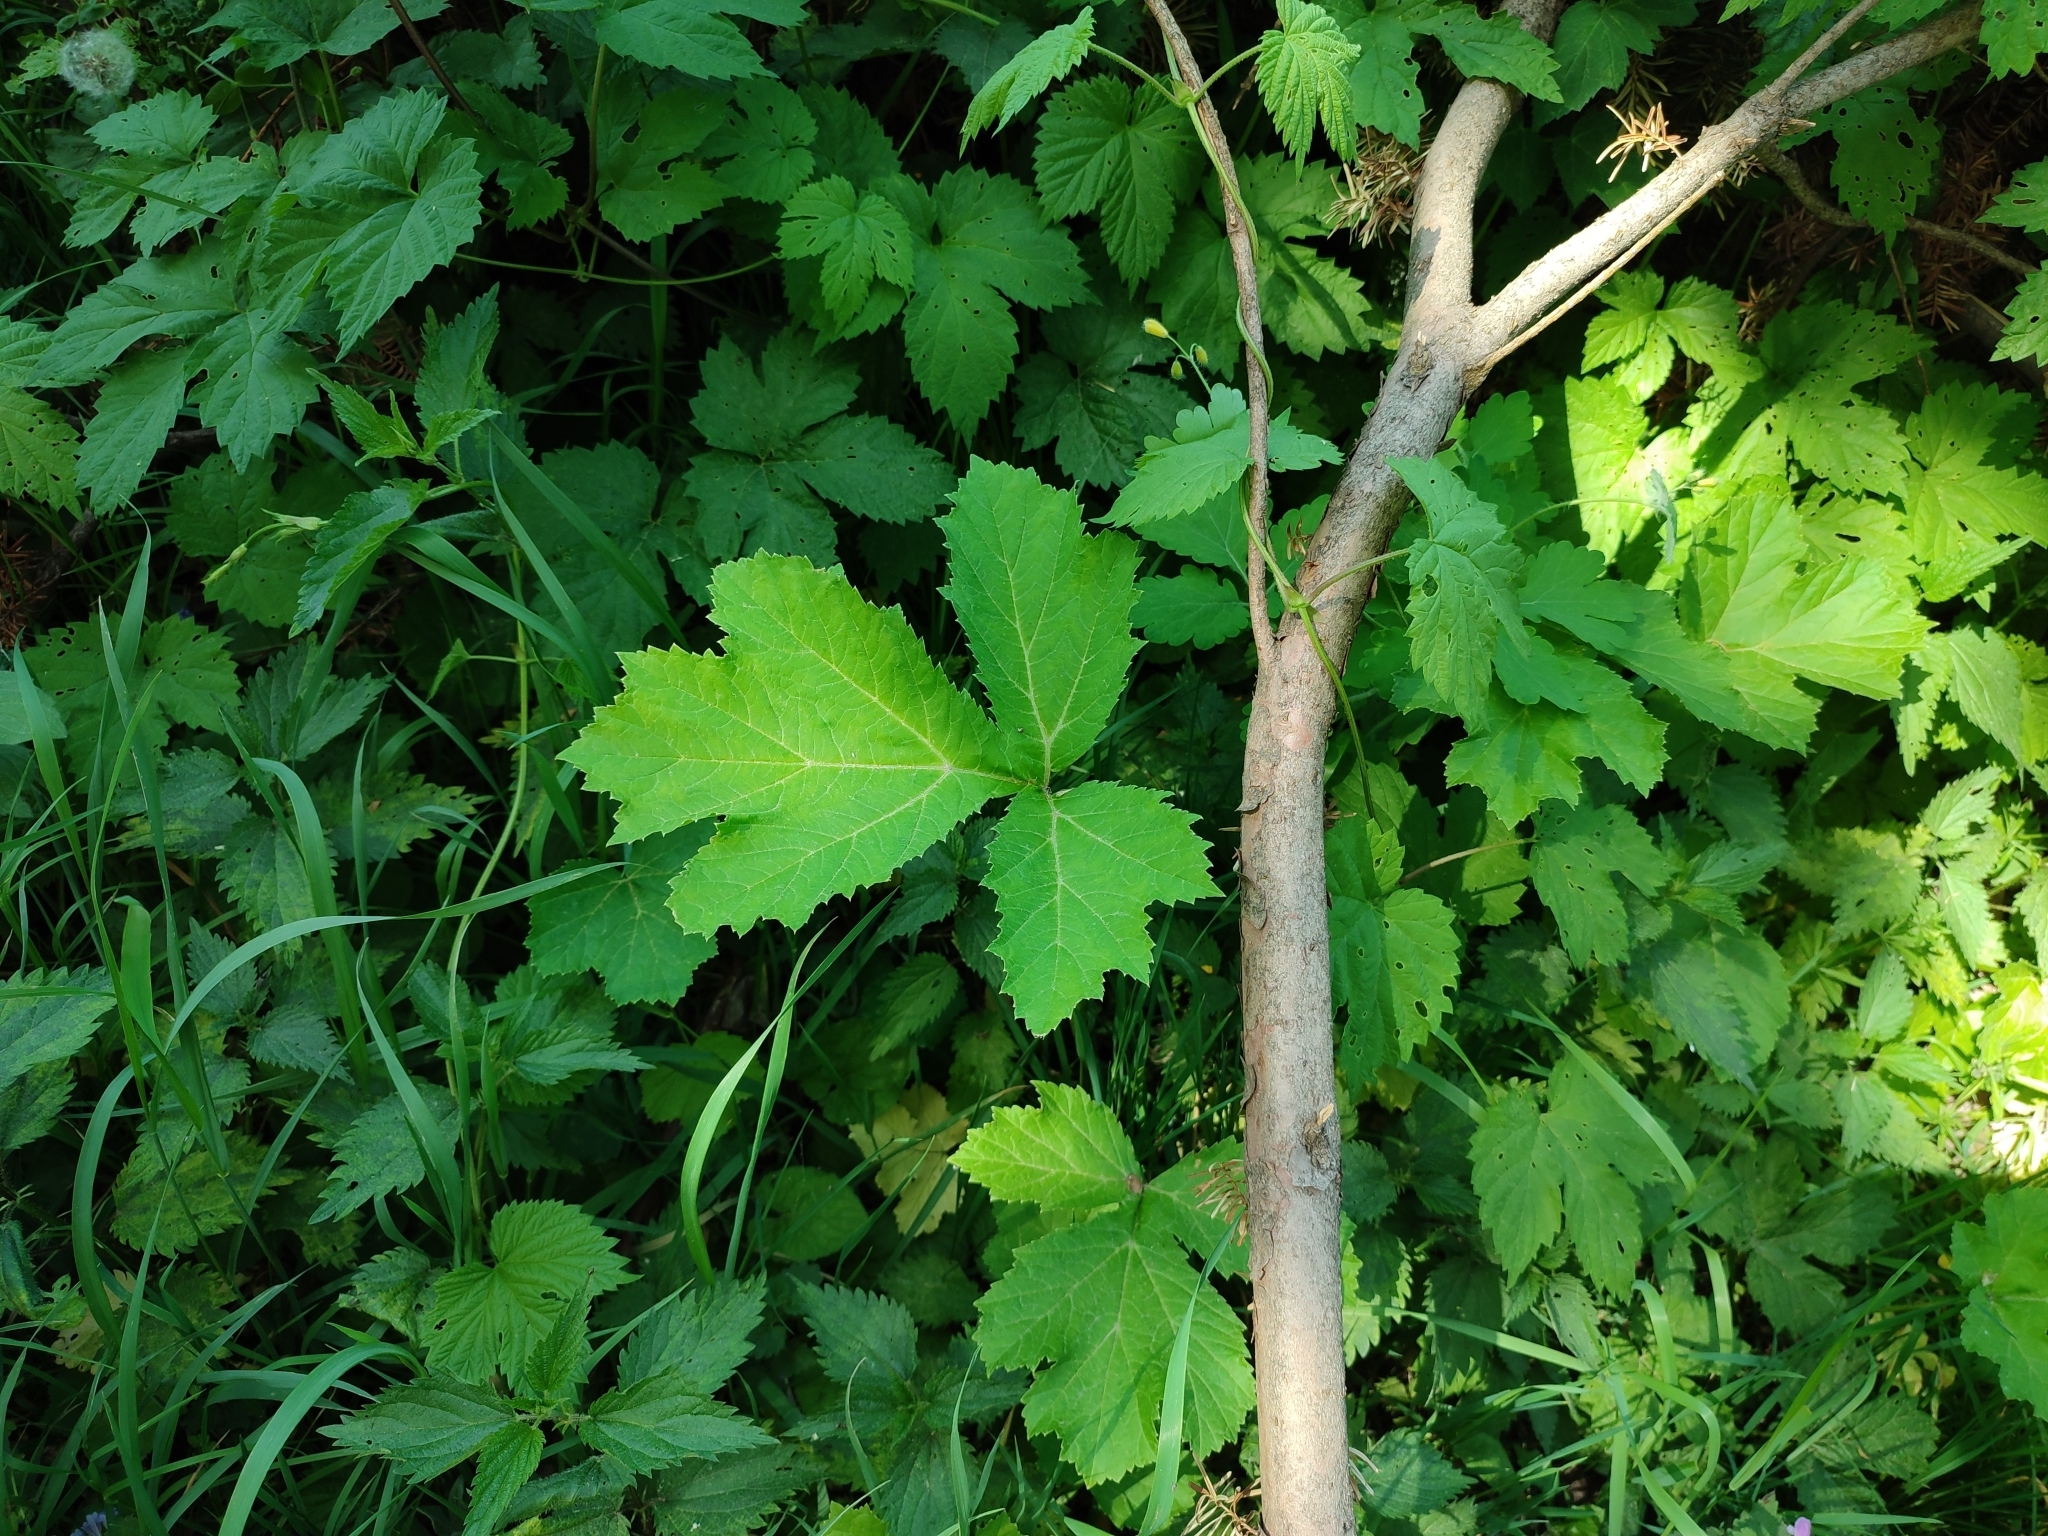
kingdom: Plantae
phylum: Tracheophyta
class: Magnoliopsida
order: Rosales
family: Cannabaceae
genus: Humulus
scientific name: Humulus lupulus
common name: Hop
